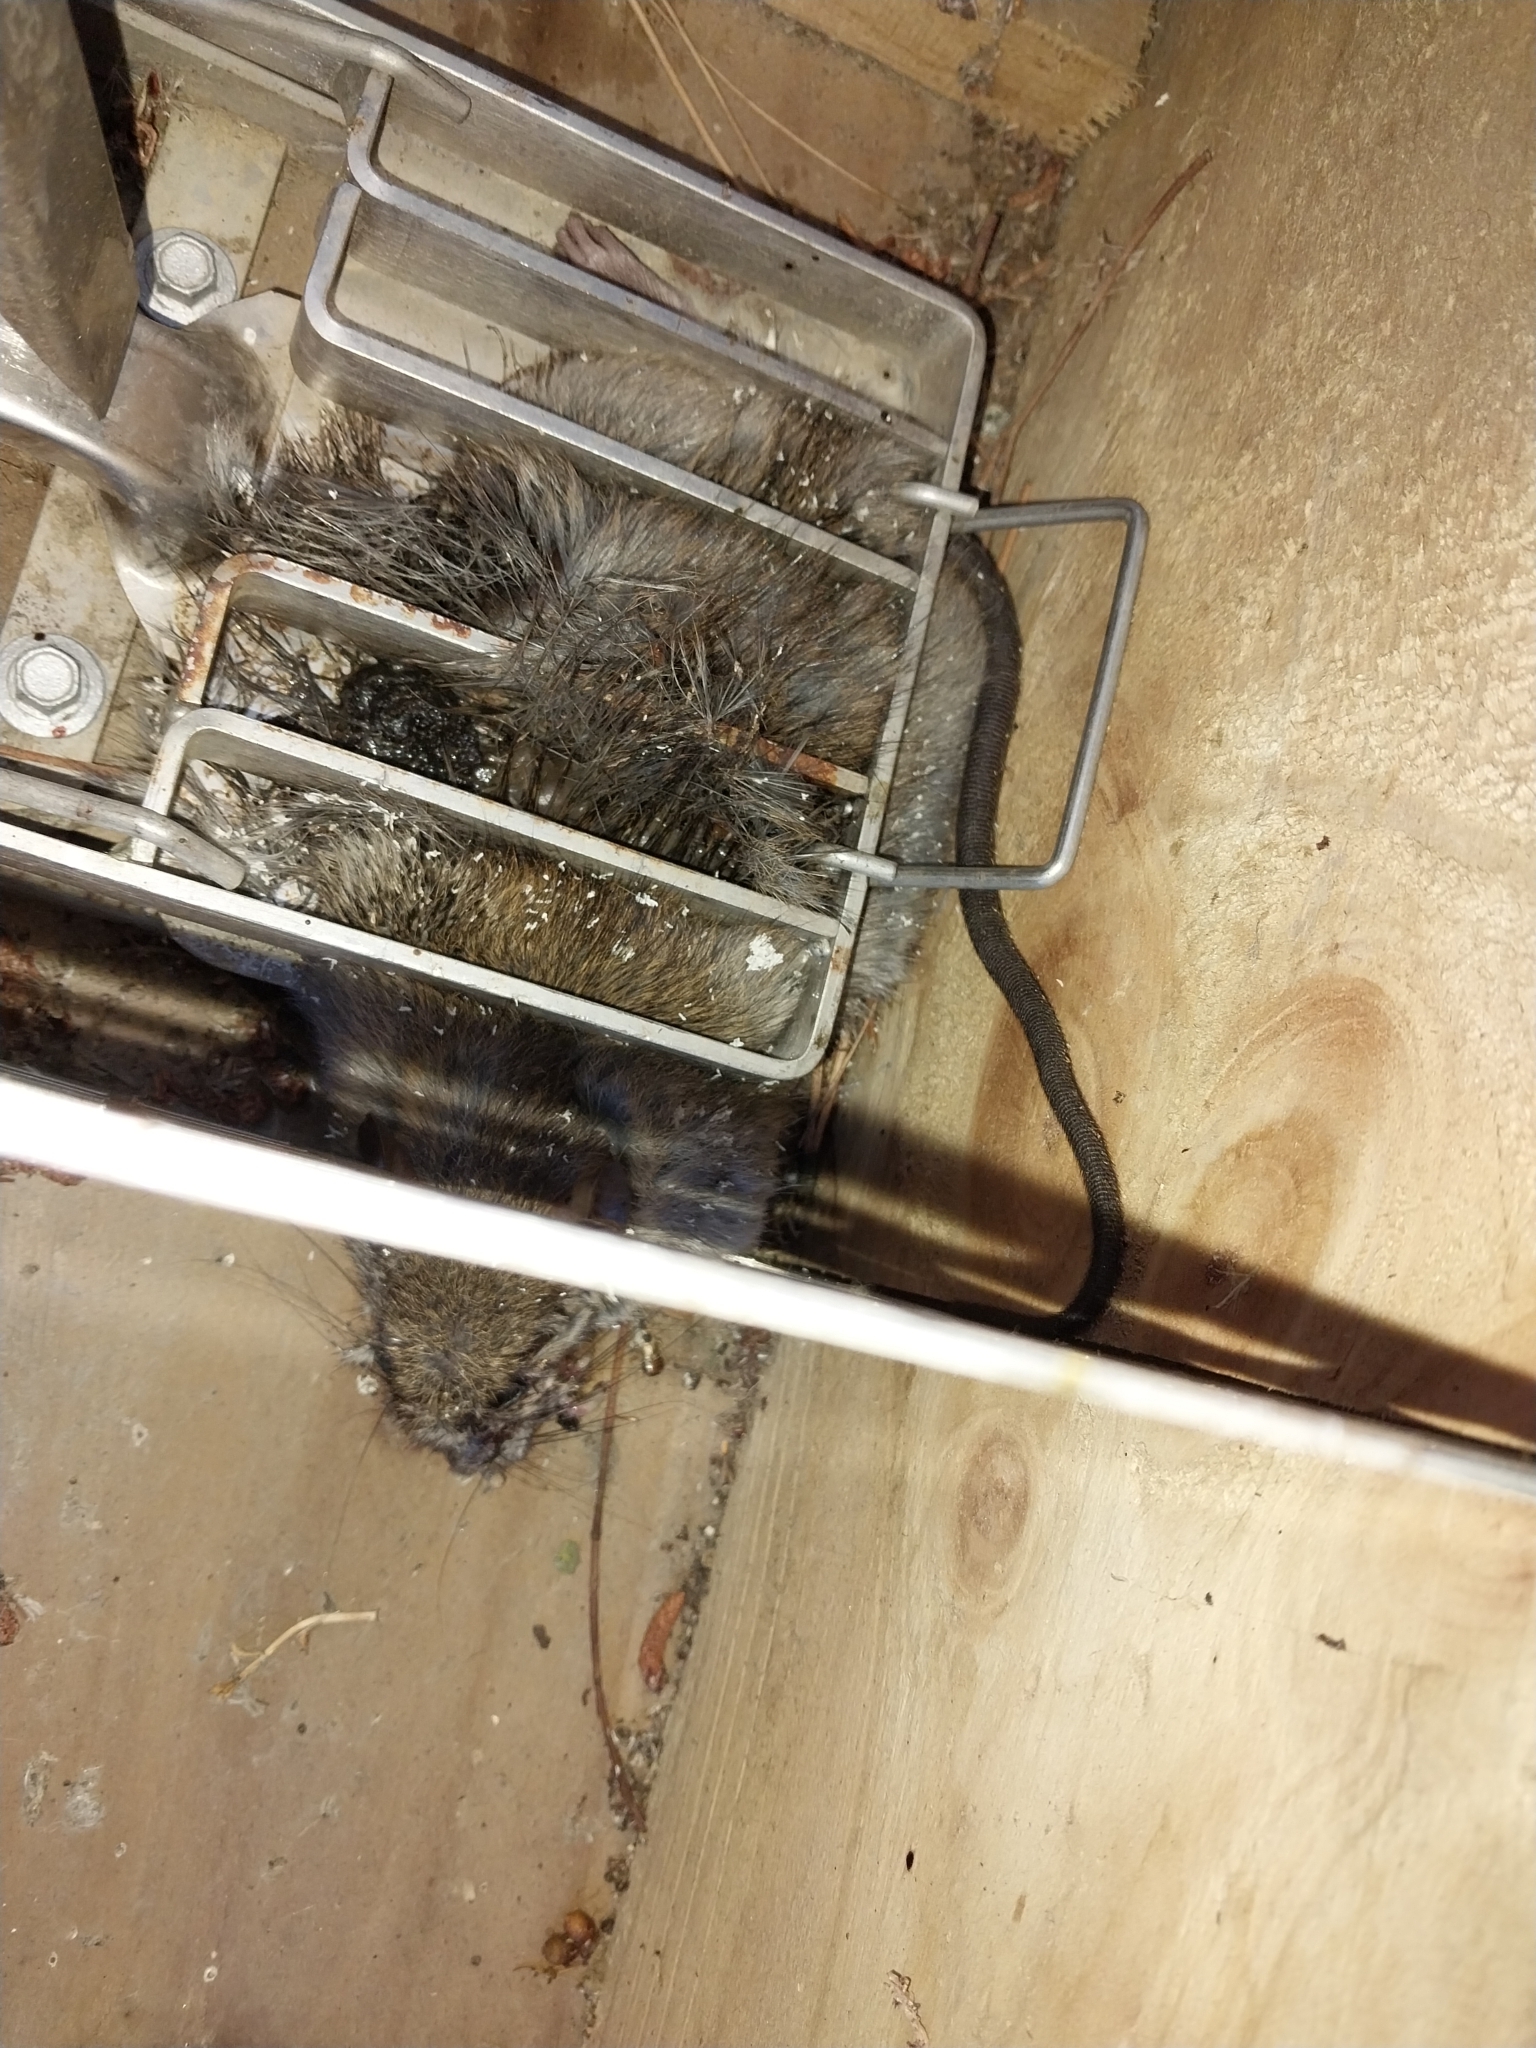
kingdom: Animalia
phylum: Chordata
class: Mammalia
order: Rodentia
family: Muridae
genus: Rattus
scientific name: Rattus rattus
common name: Black rat
